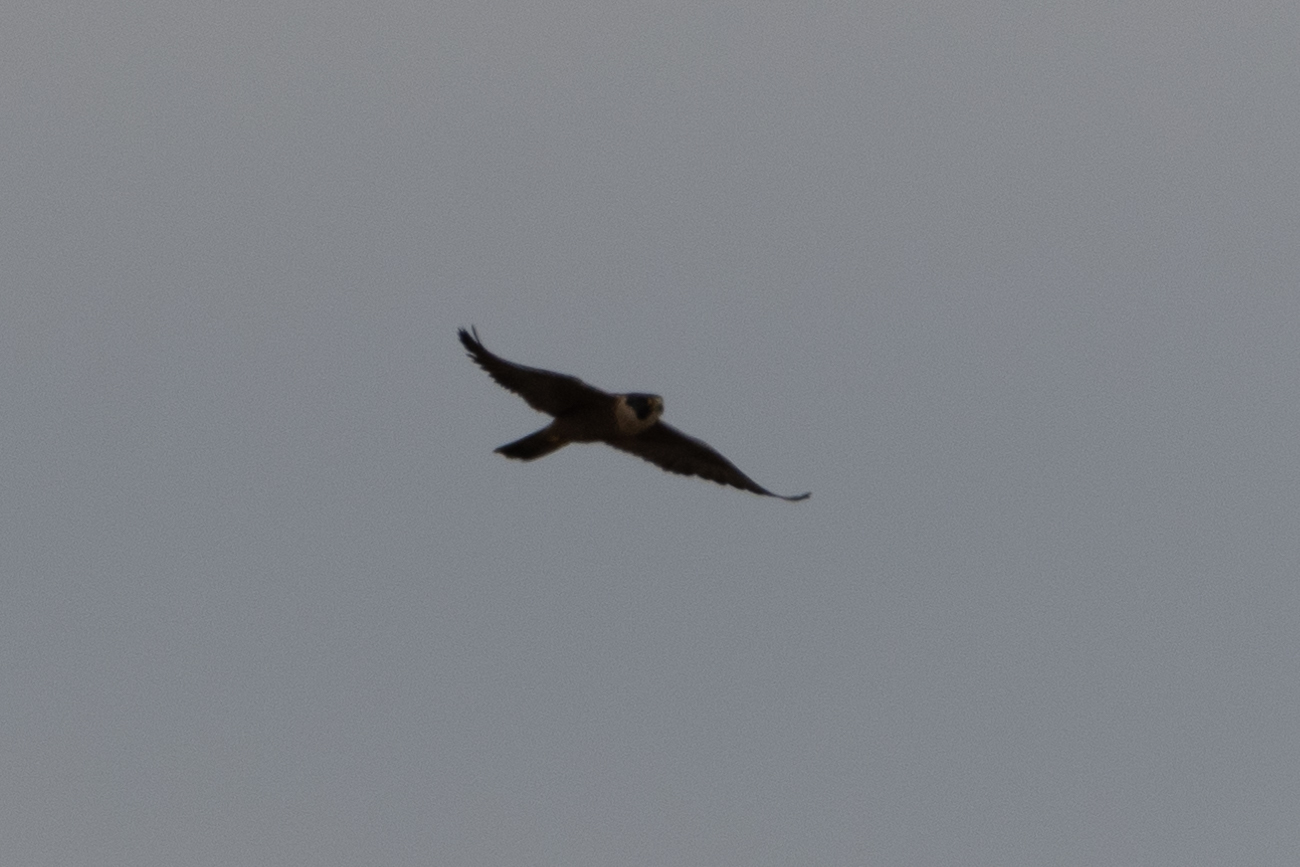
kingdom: Animalia
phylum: Chordata
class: Aves
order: Falconiformes
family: Falconidae
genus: Falco
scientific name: Falco peregrinus
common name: Peregrine falcon
